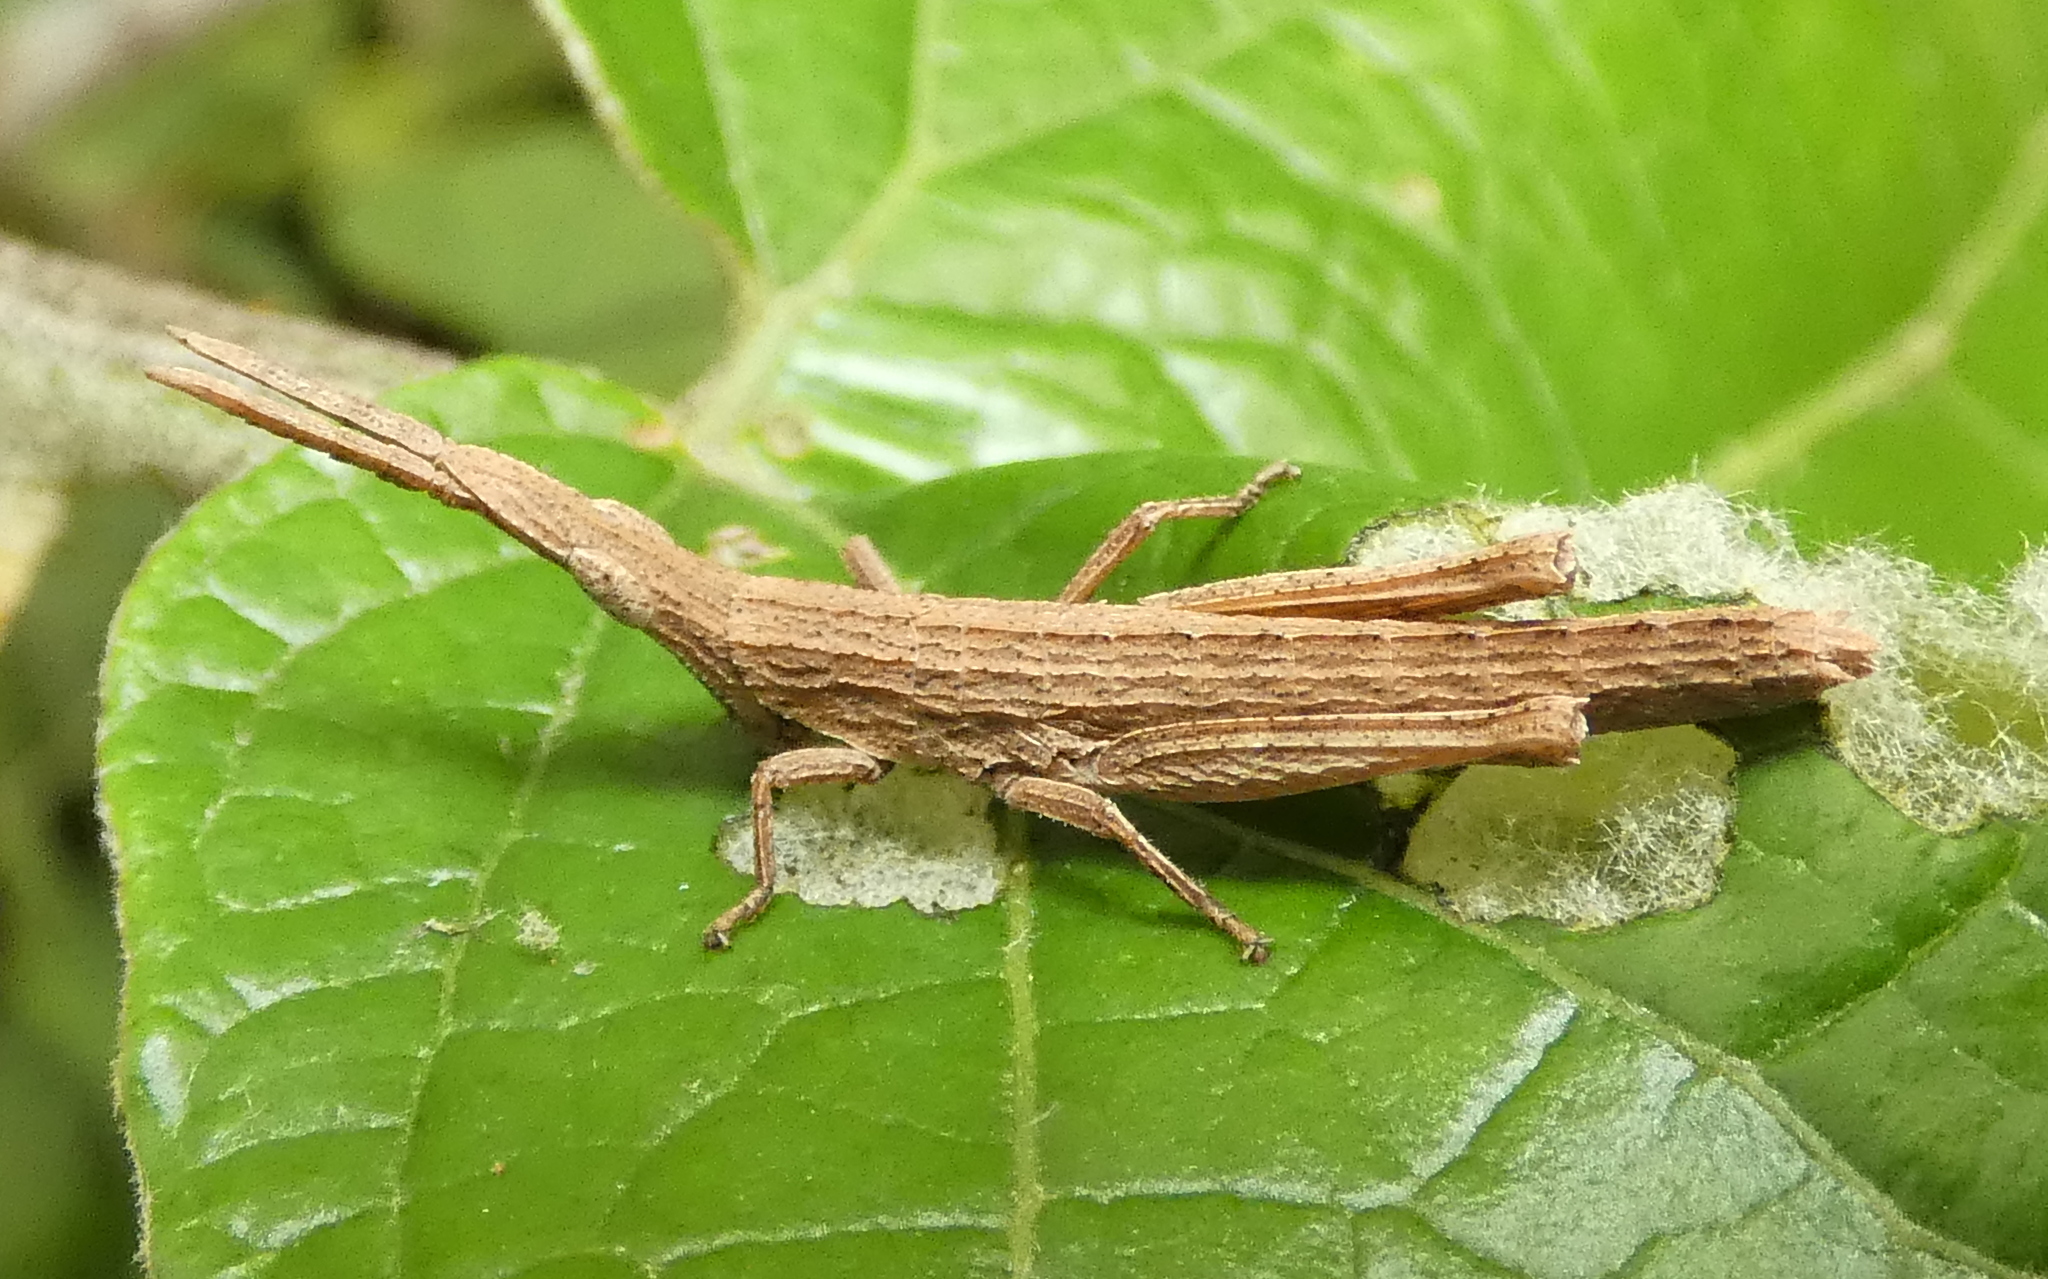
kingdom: Animalia
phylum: Arthropoda
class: Insecta
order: Orthoptera
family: Pyrgomorphidae
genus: Algete
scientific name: Algete brunneri
